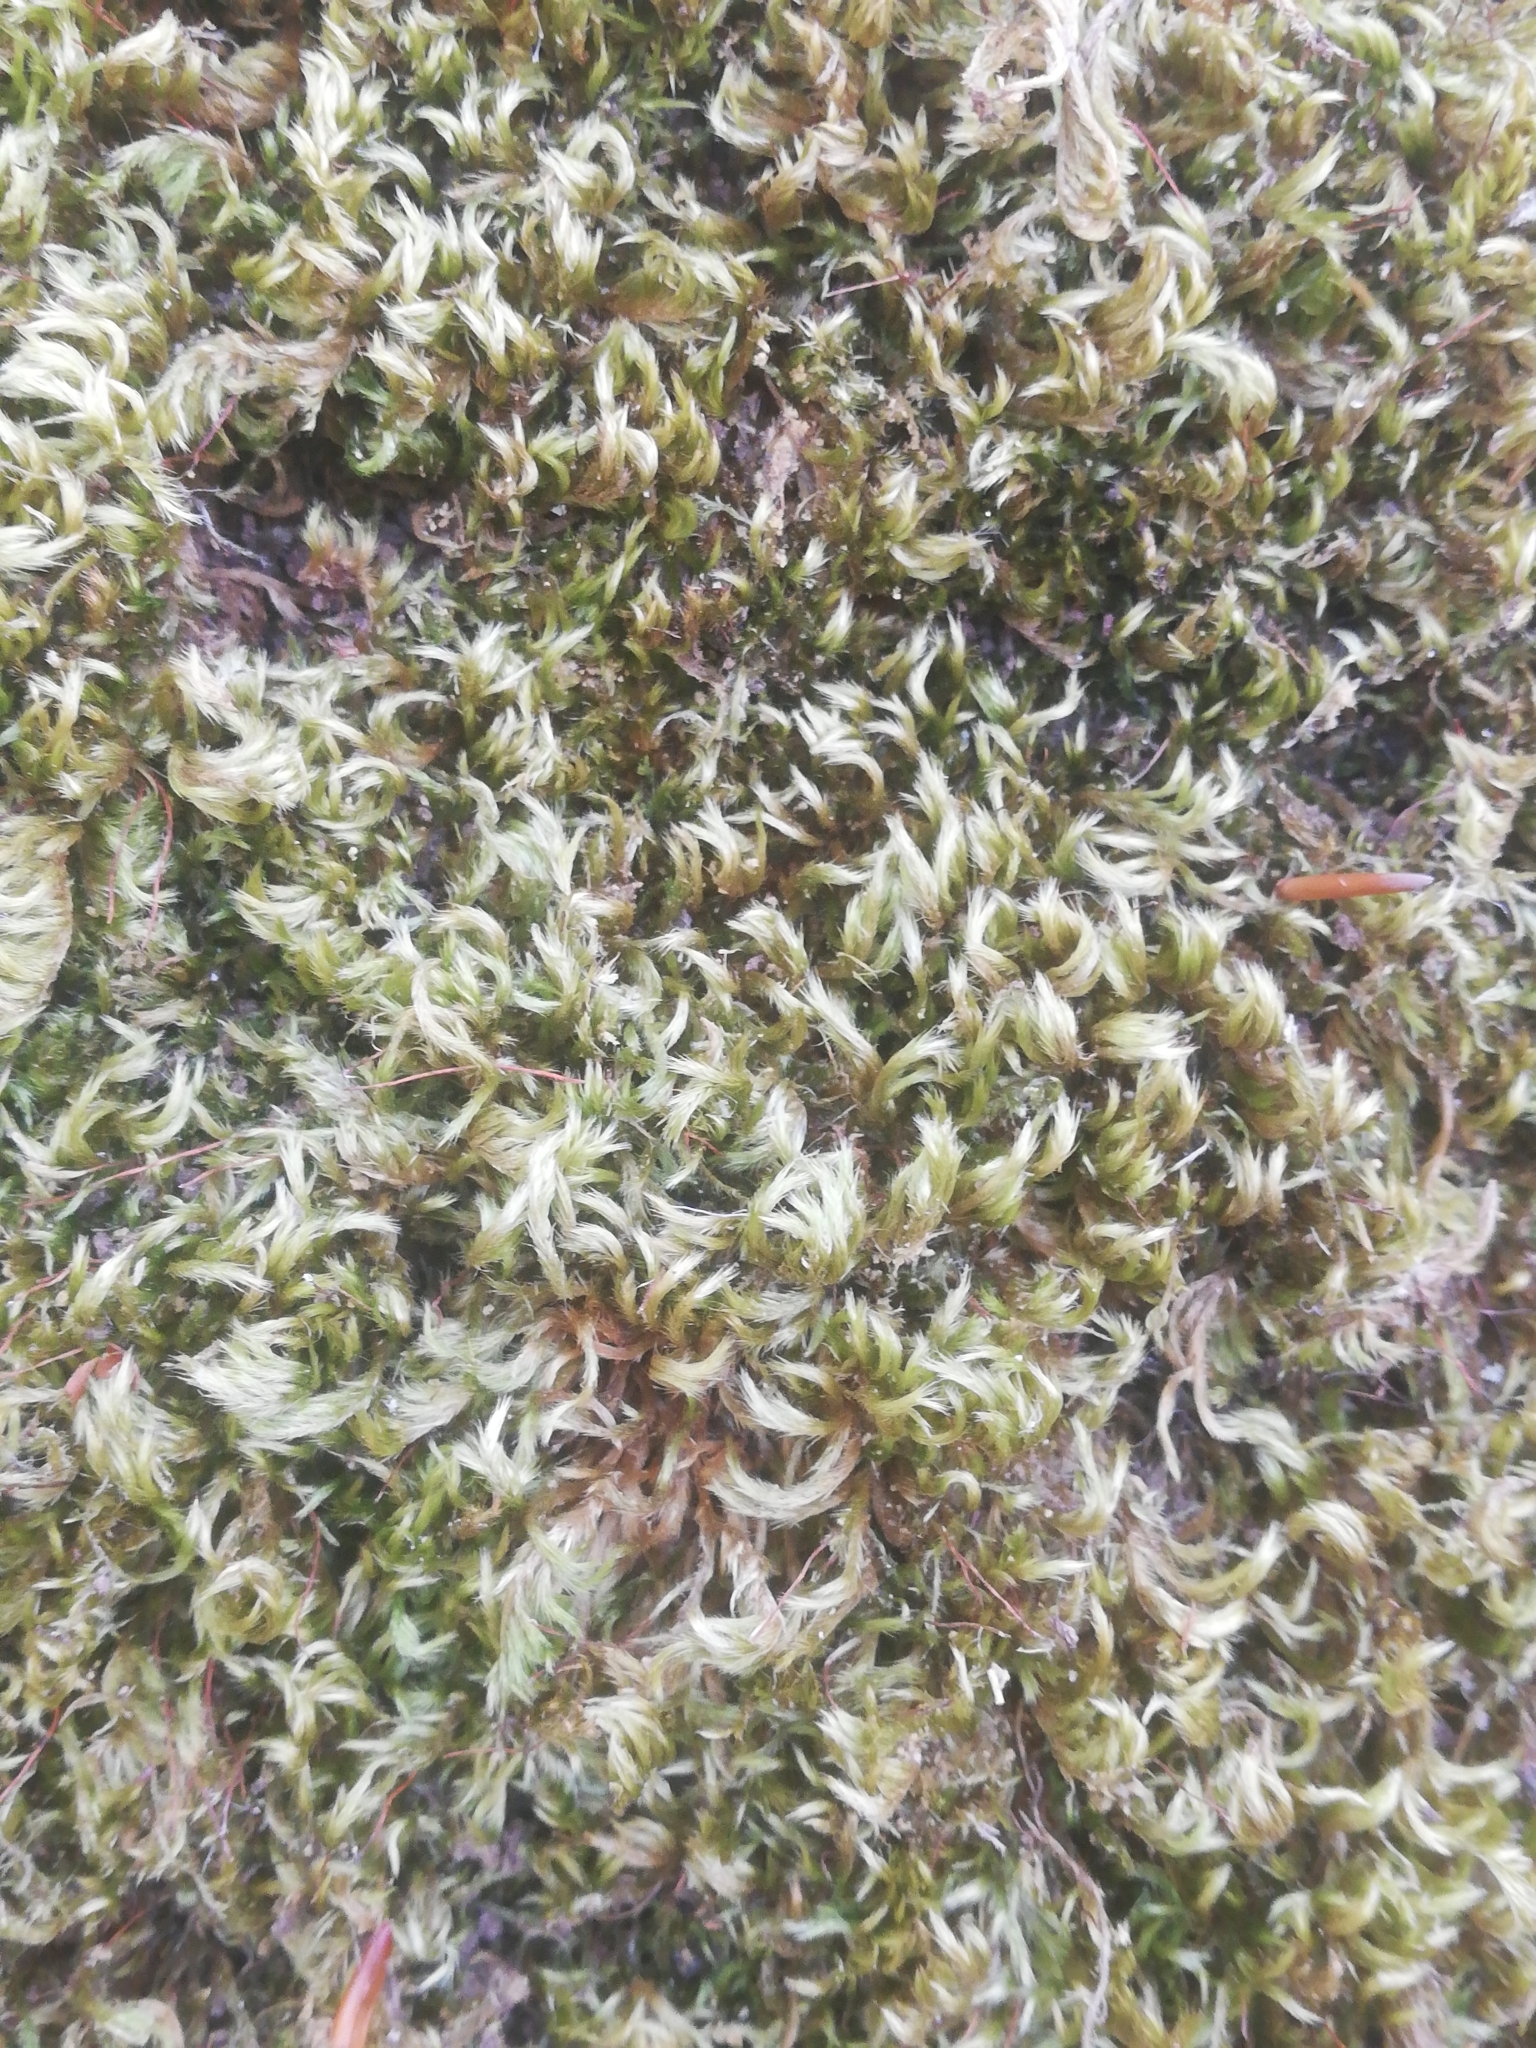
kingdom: Plantae
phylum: Bryophyta
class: Bryopsida
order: Hypnales
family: Brachytheciaceae
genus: Homalothecium
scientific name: Homalothecium sericeum
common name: Silky wall feather-moss
